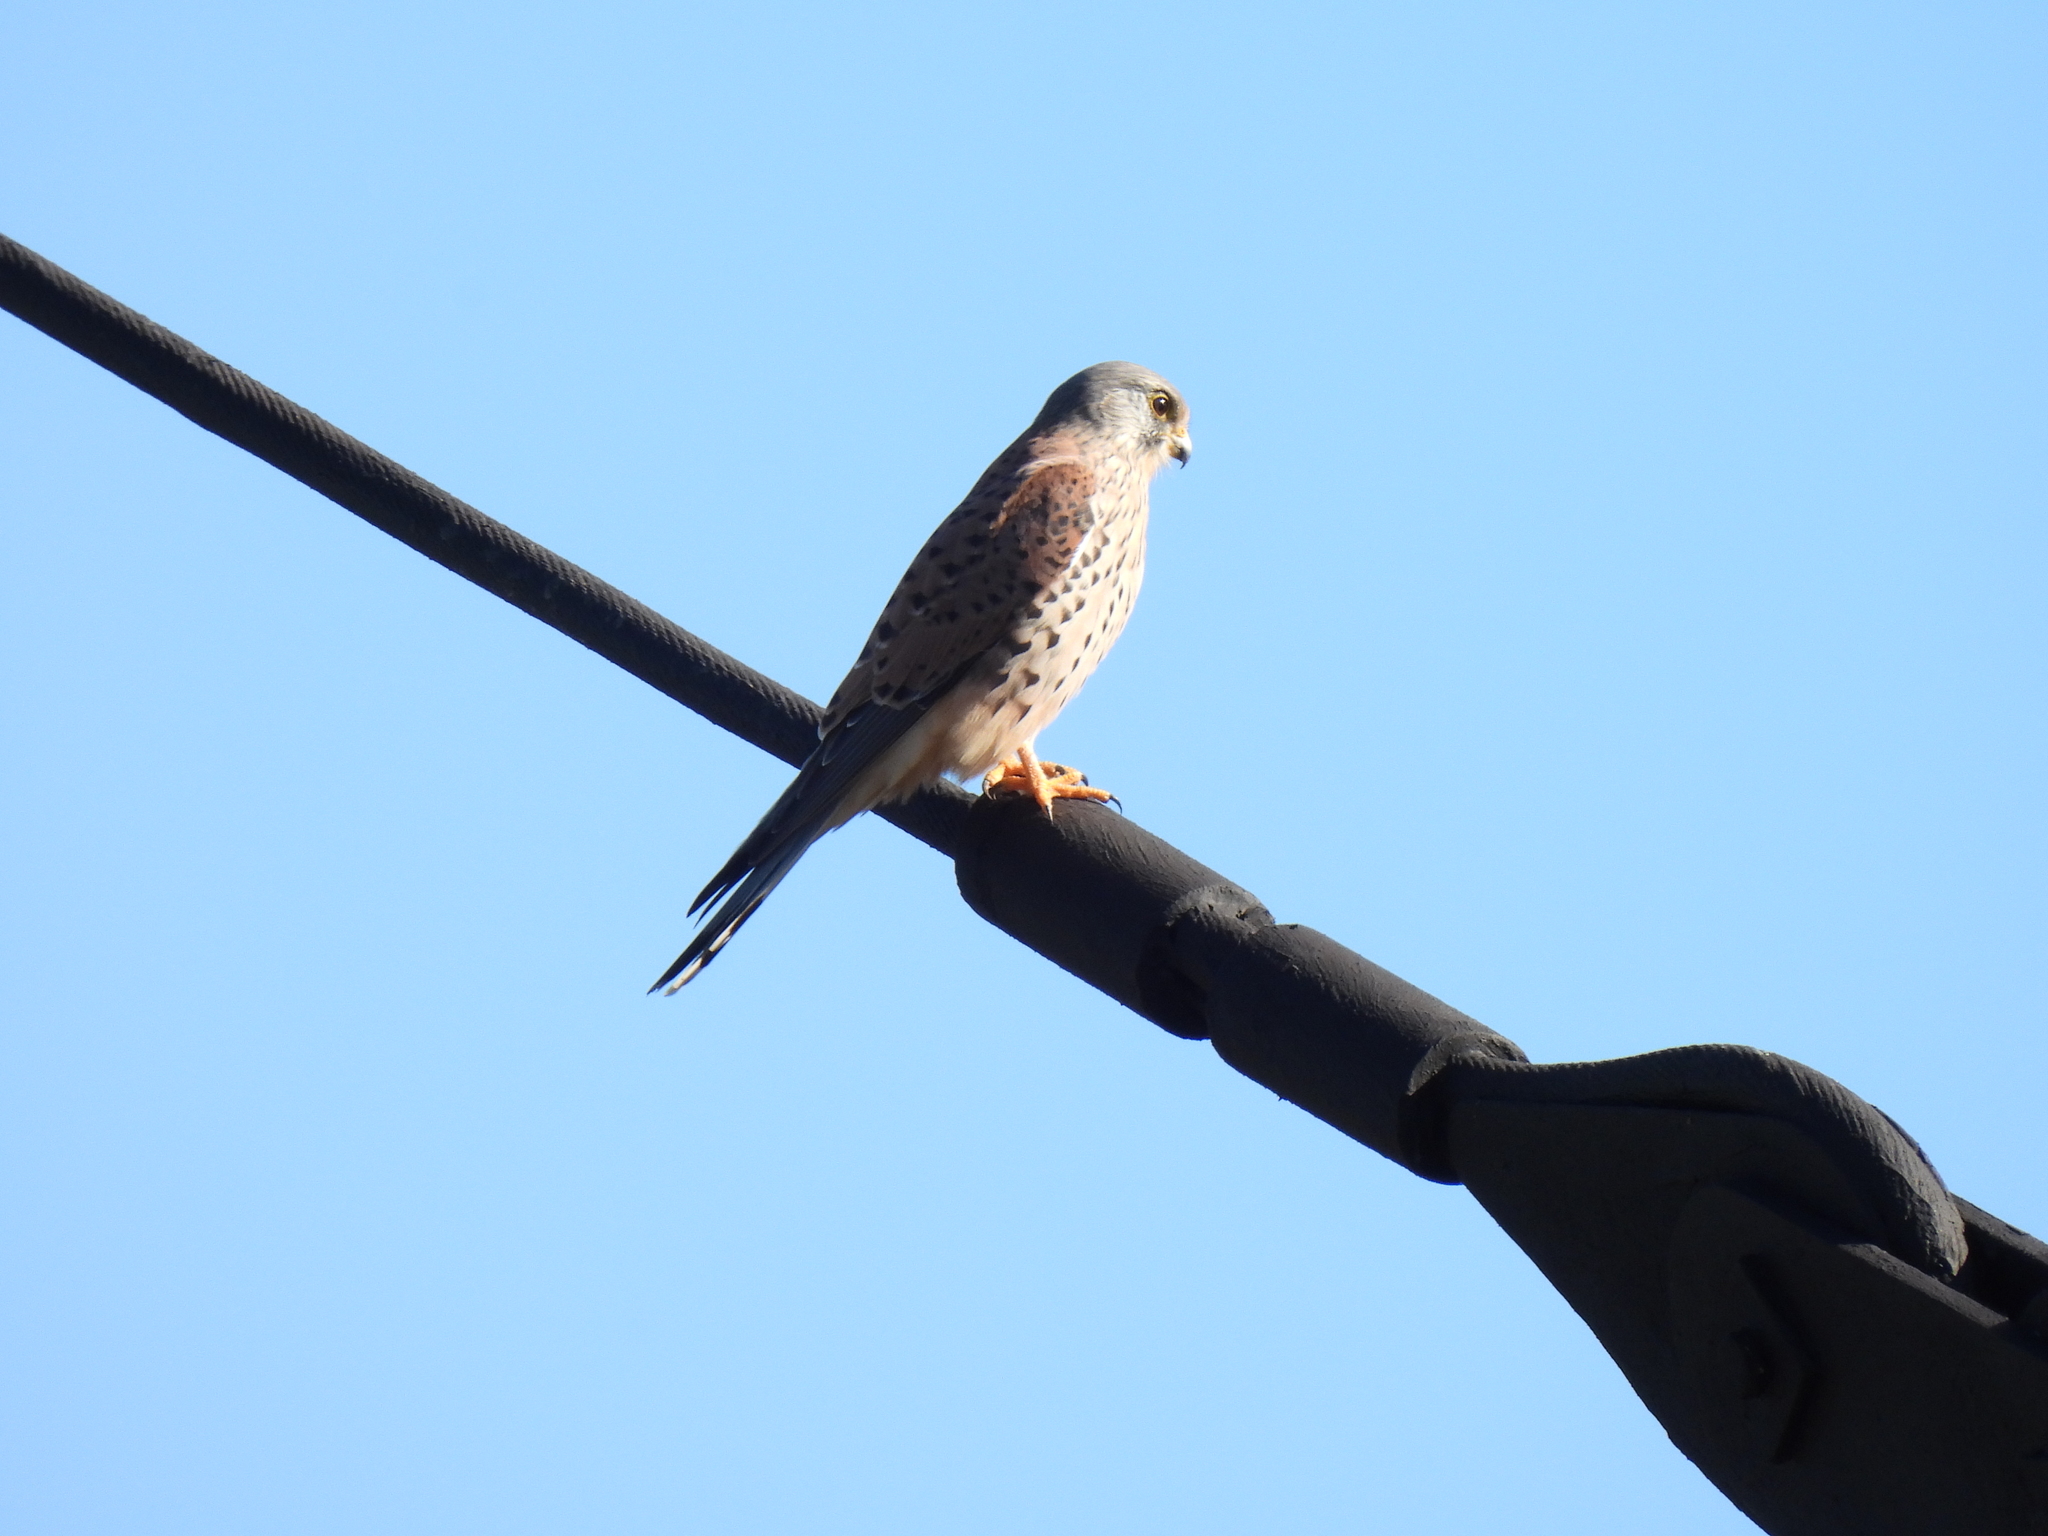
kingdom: Animalia
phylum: Chordata
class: Aves
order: Falconiformes
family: Falconidae
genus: Falco
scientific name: Falco tinnunculus
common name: Common kestrel
